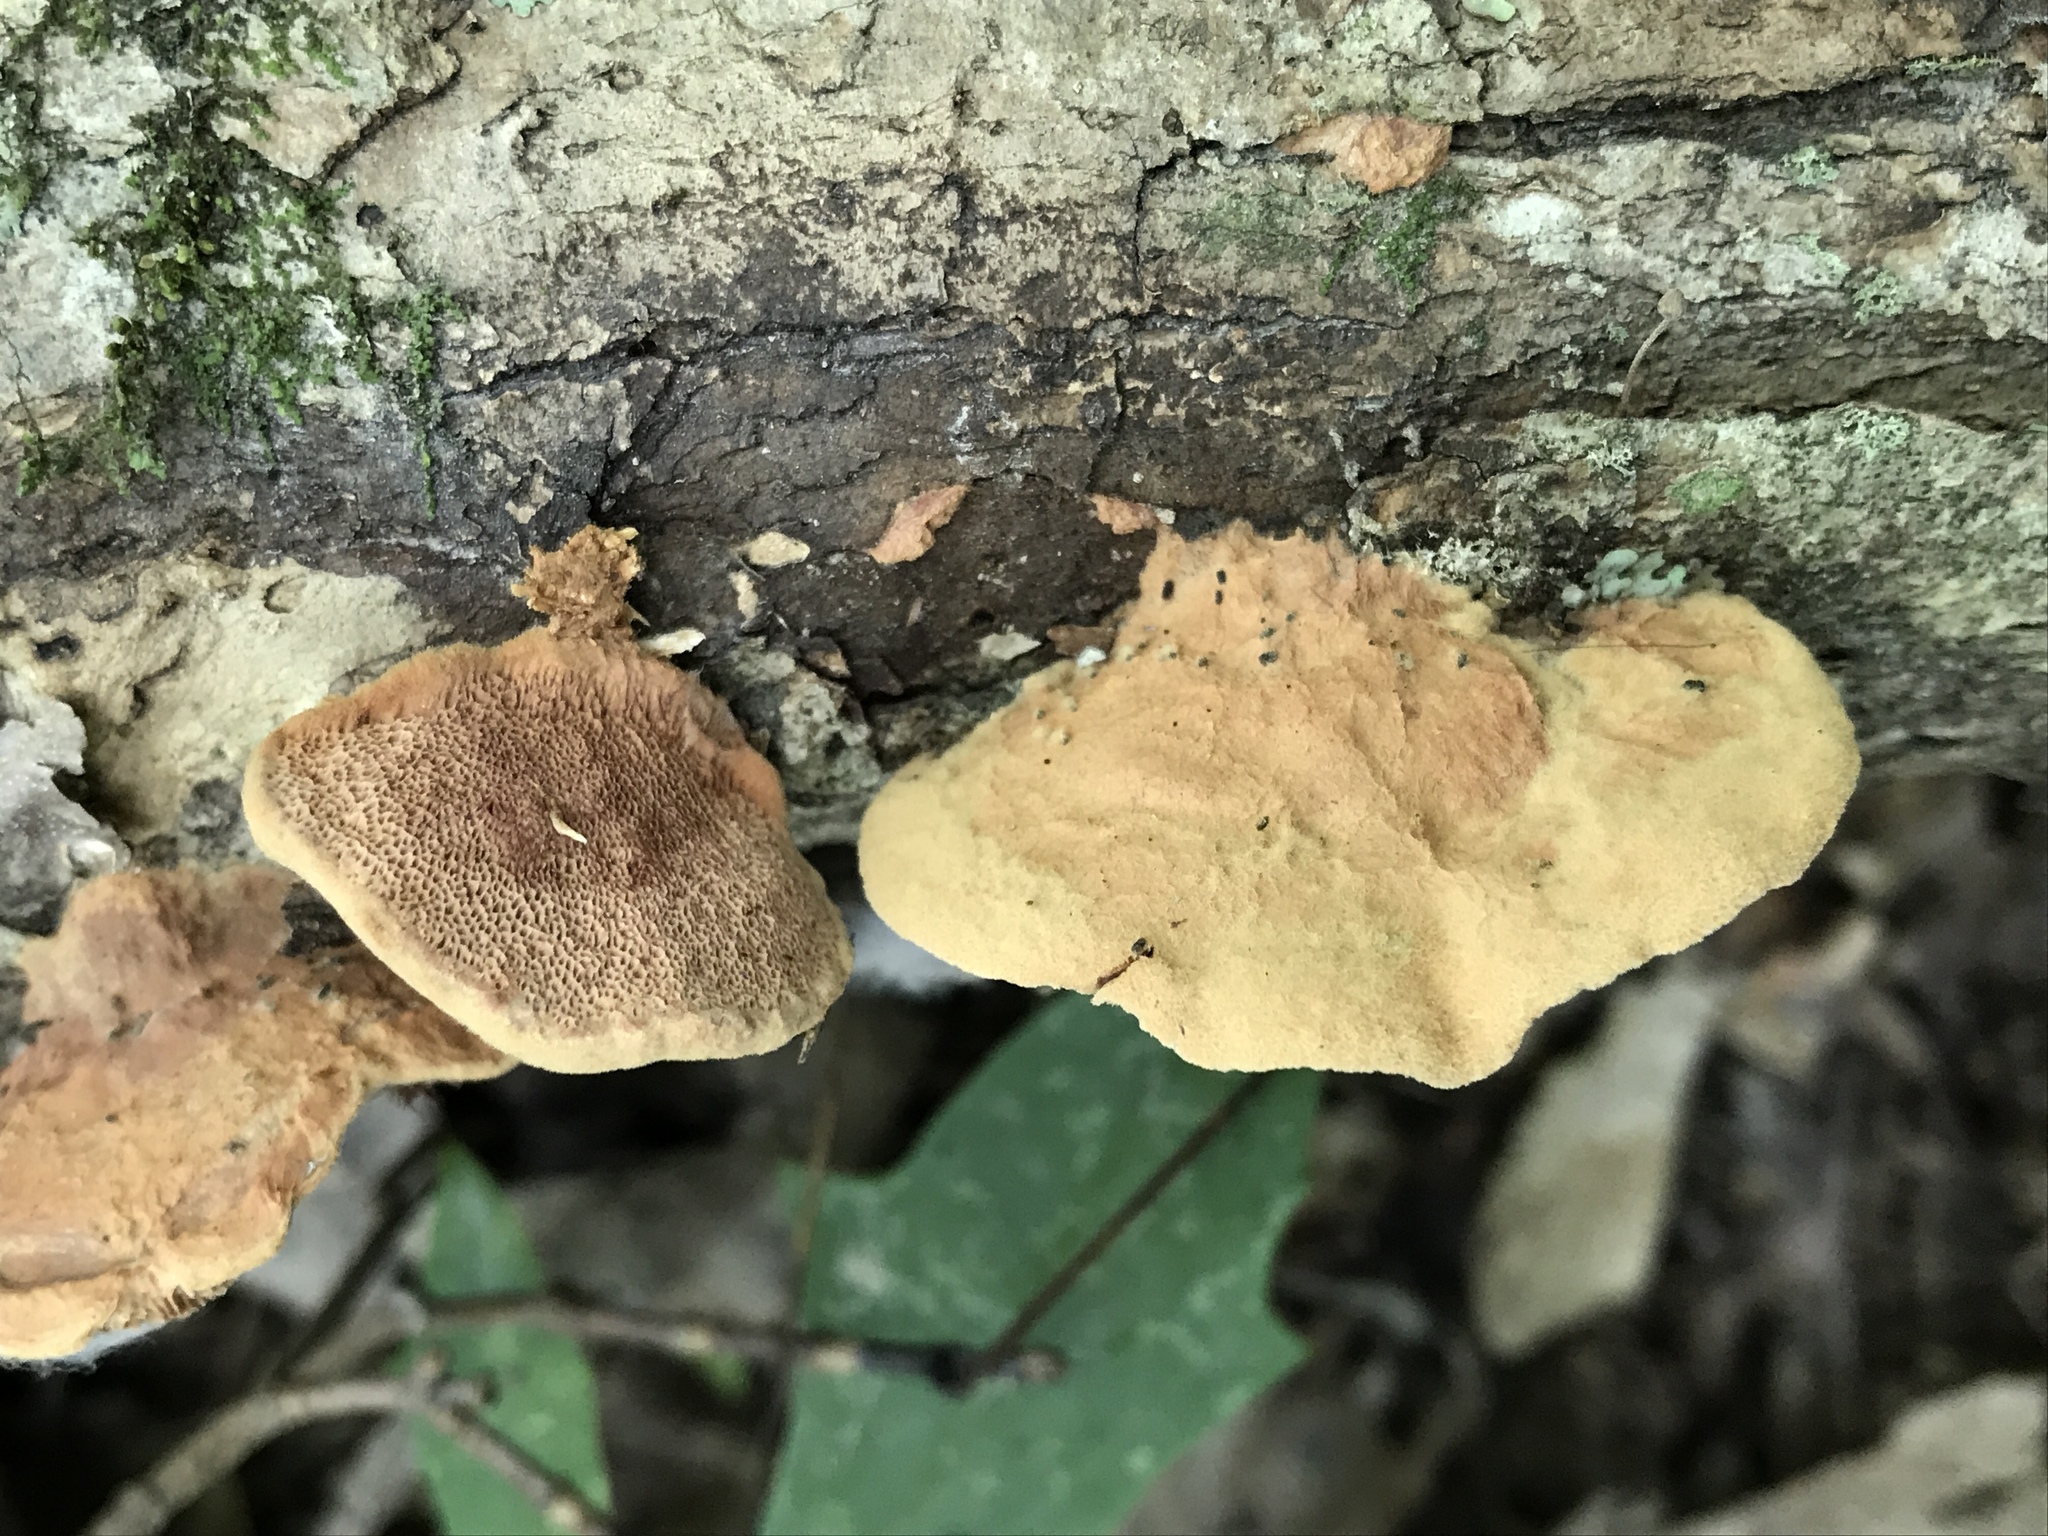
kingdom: Fungi
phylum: Basidiomycota
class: Agaricomycetes
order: Polyporales
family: Phanerochaetaceae
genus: Hapalopilus
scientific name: Hapalopilus rutilans
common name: Tender nesting polypore
